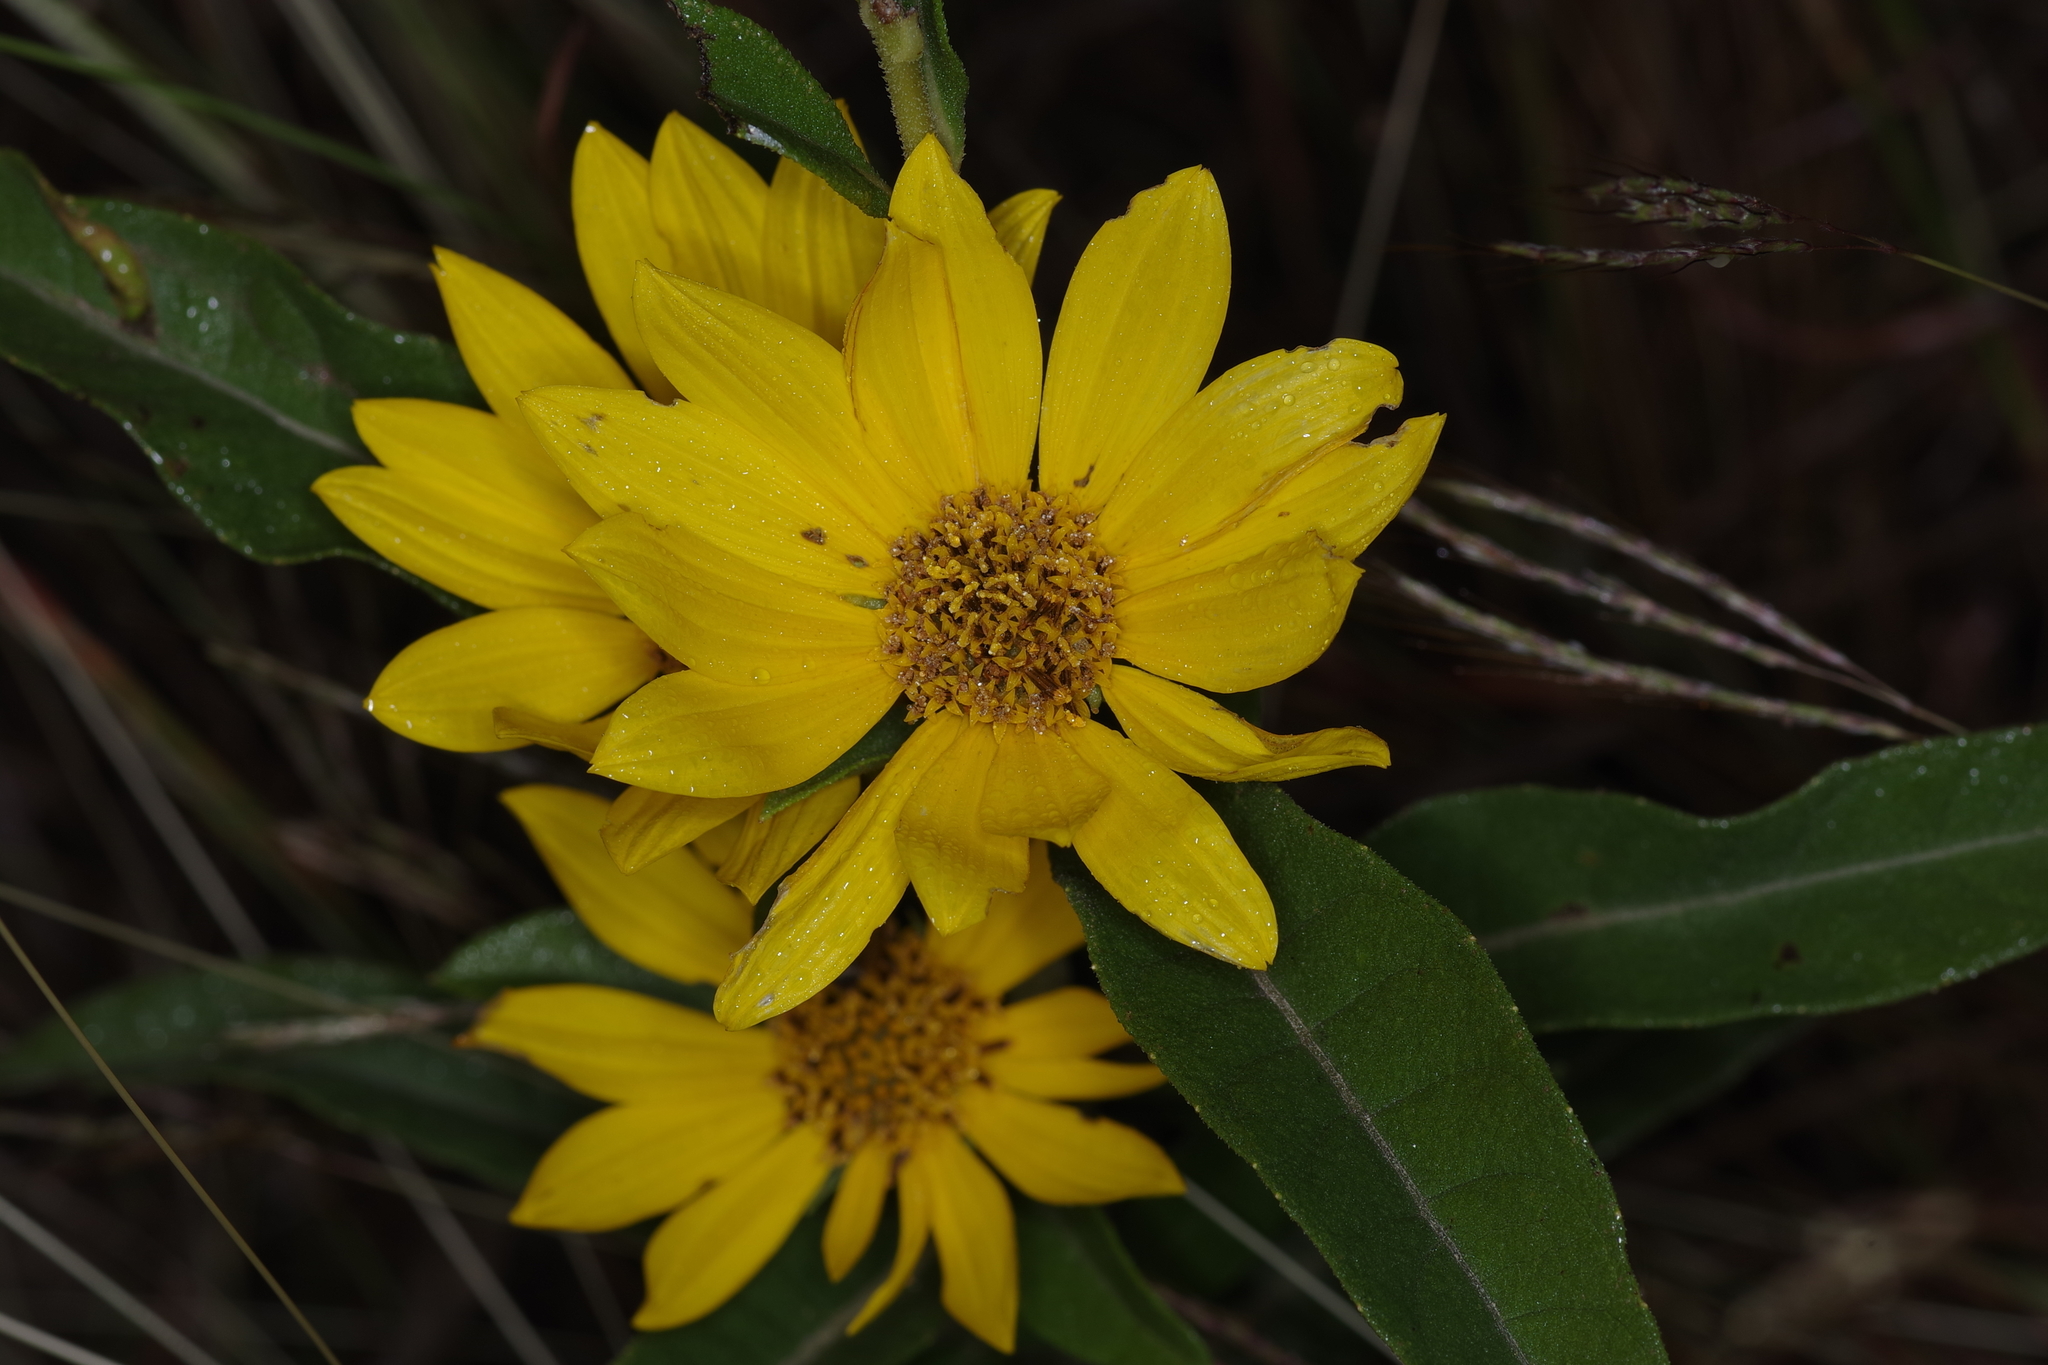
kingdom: Plantae
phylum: Tracheophyta
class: Magnoliopsida
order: Asterales
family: Asteraceae
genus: Helianthus
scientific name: Helianthus maximiliani
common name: Maximilian's sunflower
